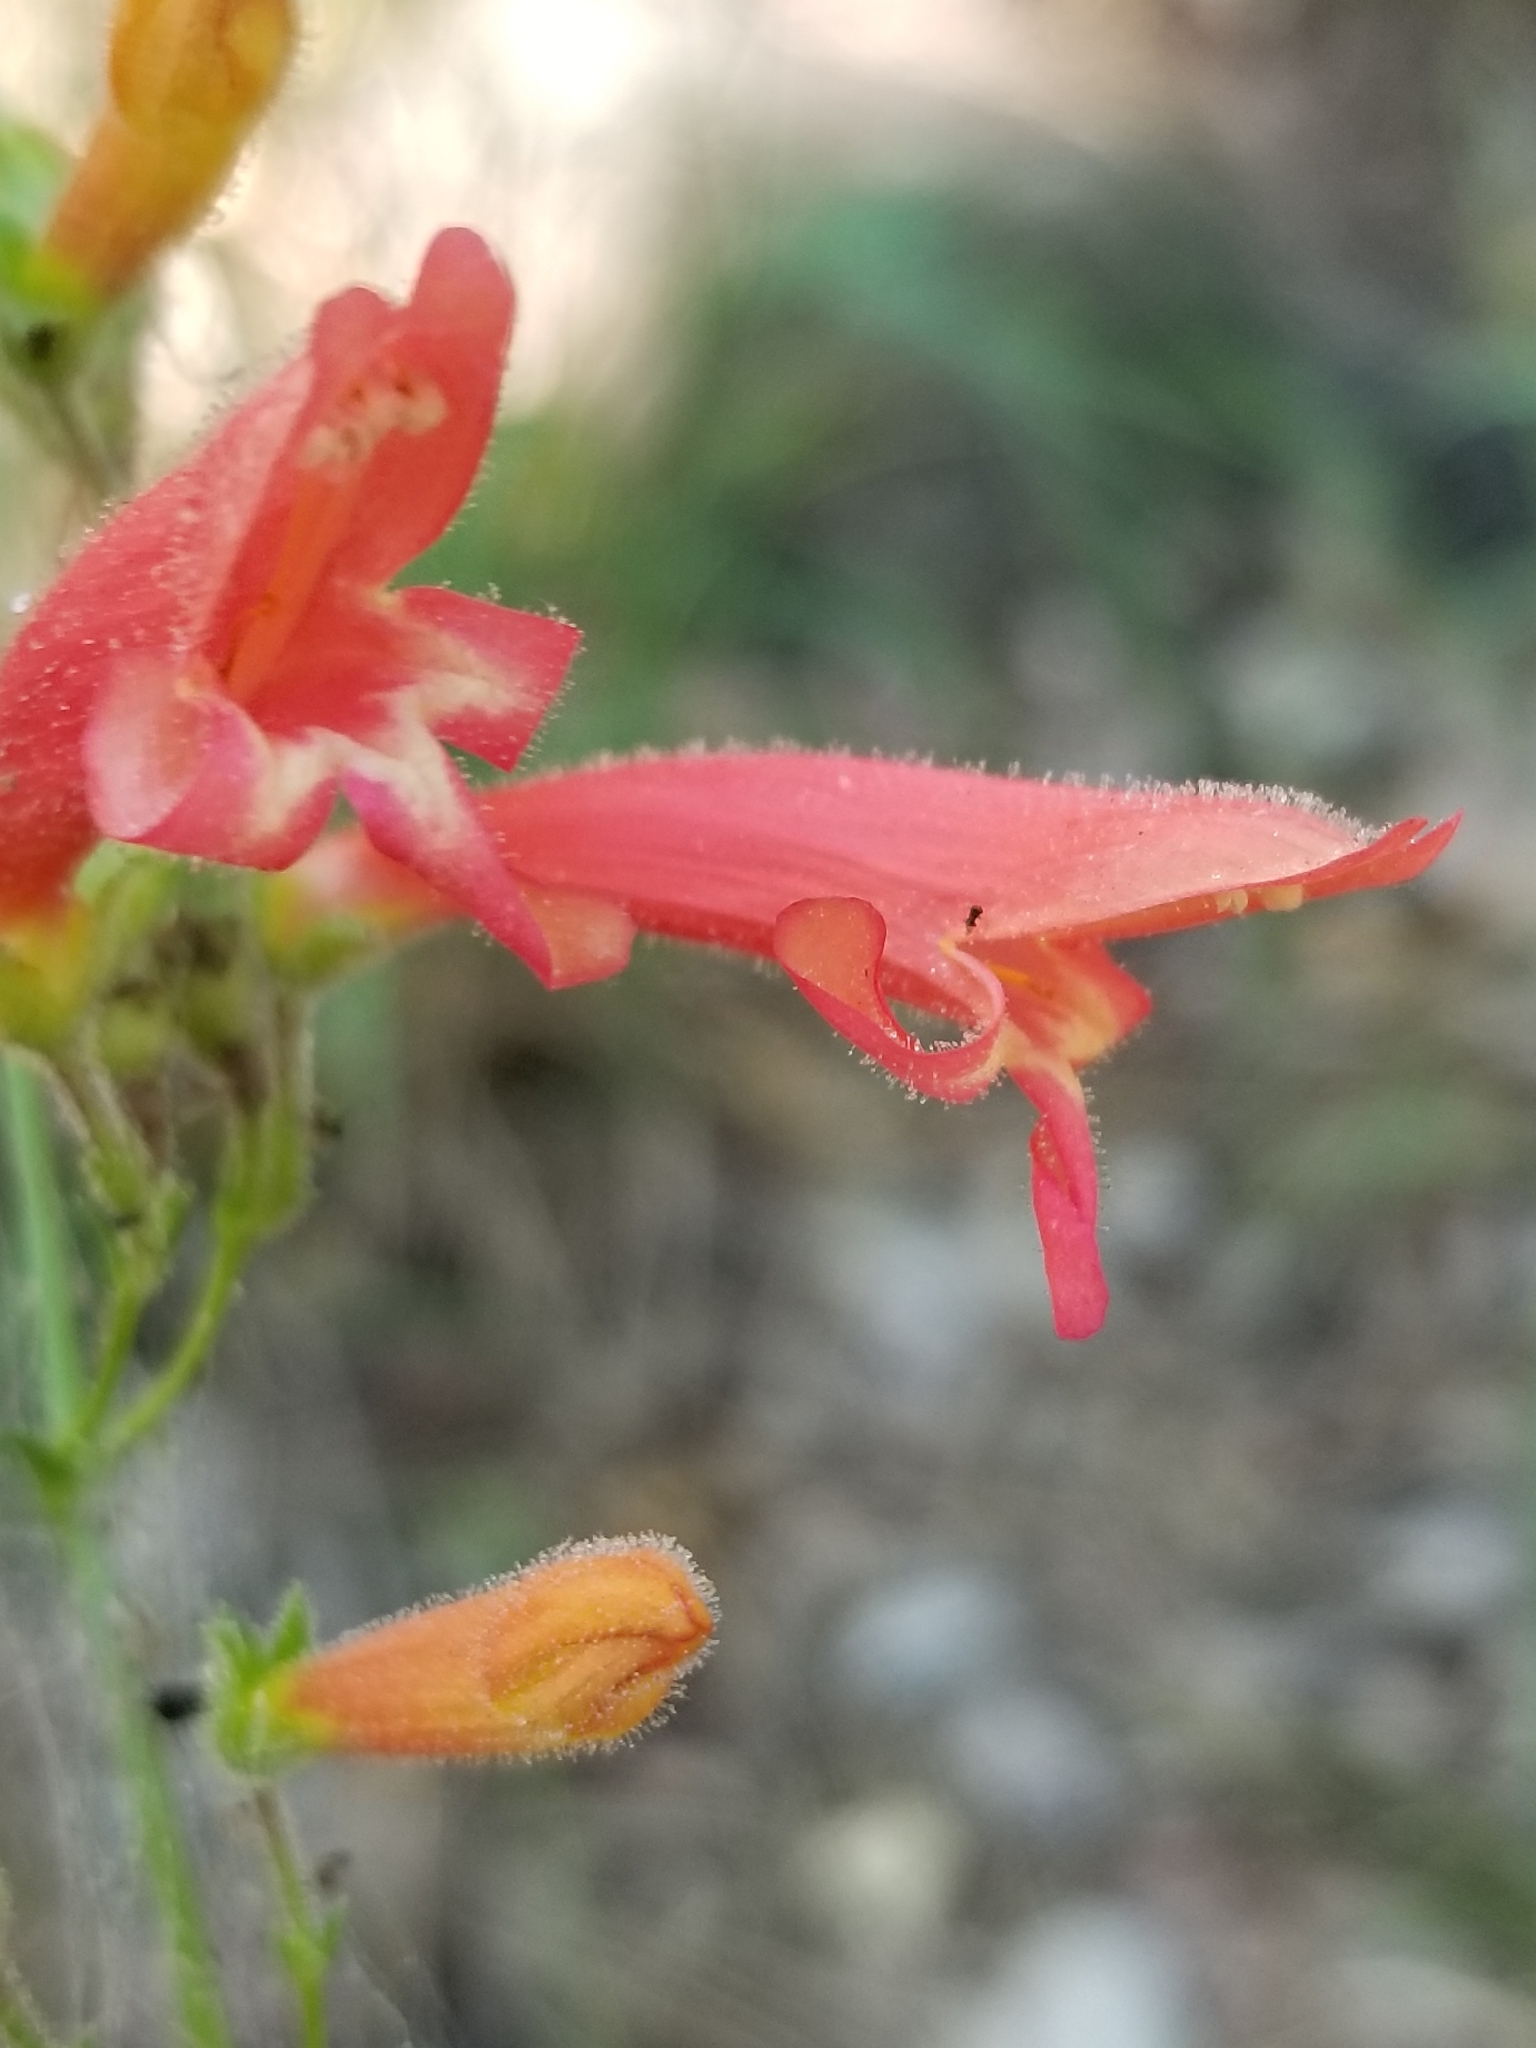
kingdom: Plantae
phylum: Tracheophyta
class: Magnoliopsida
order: Lamiales
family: Plantaginaceae
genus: Penstemon
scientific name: Penstemon rostriflorus
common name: Bridges's penstemon
